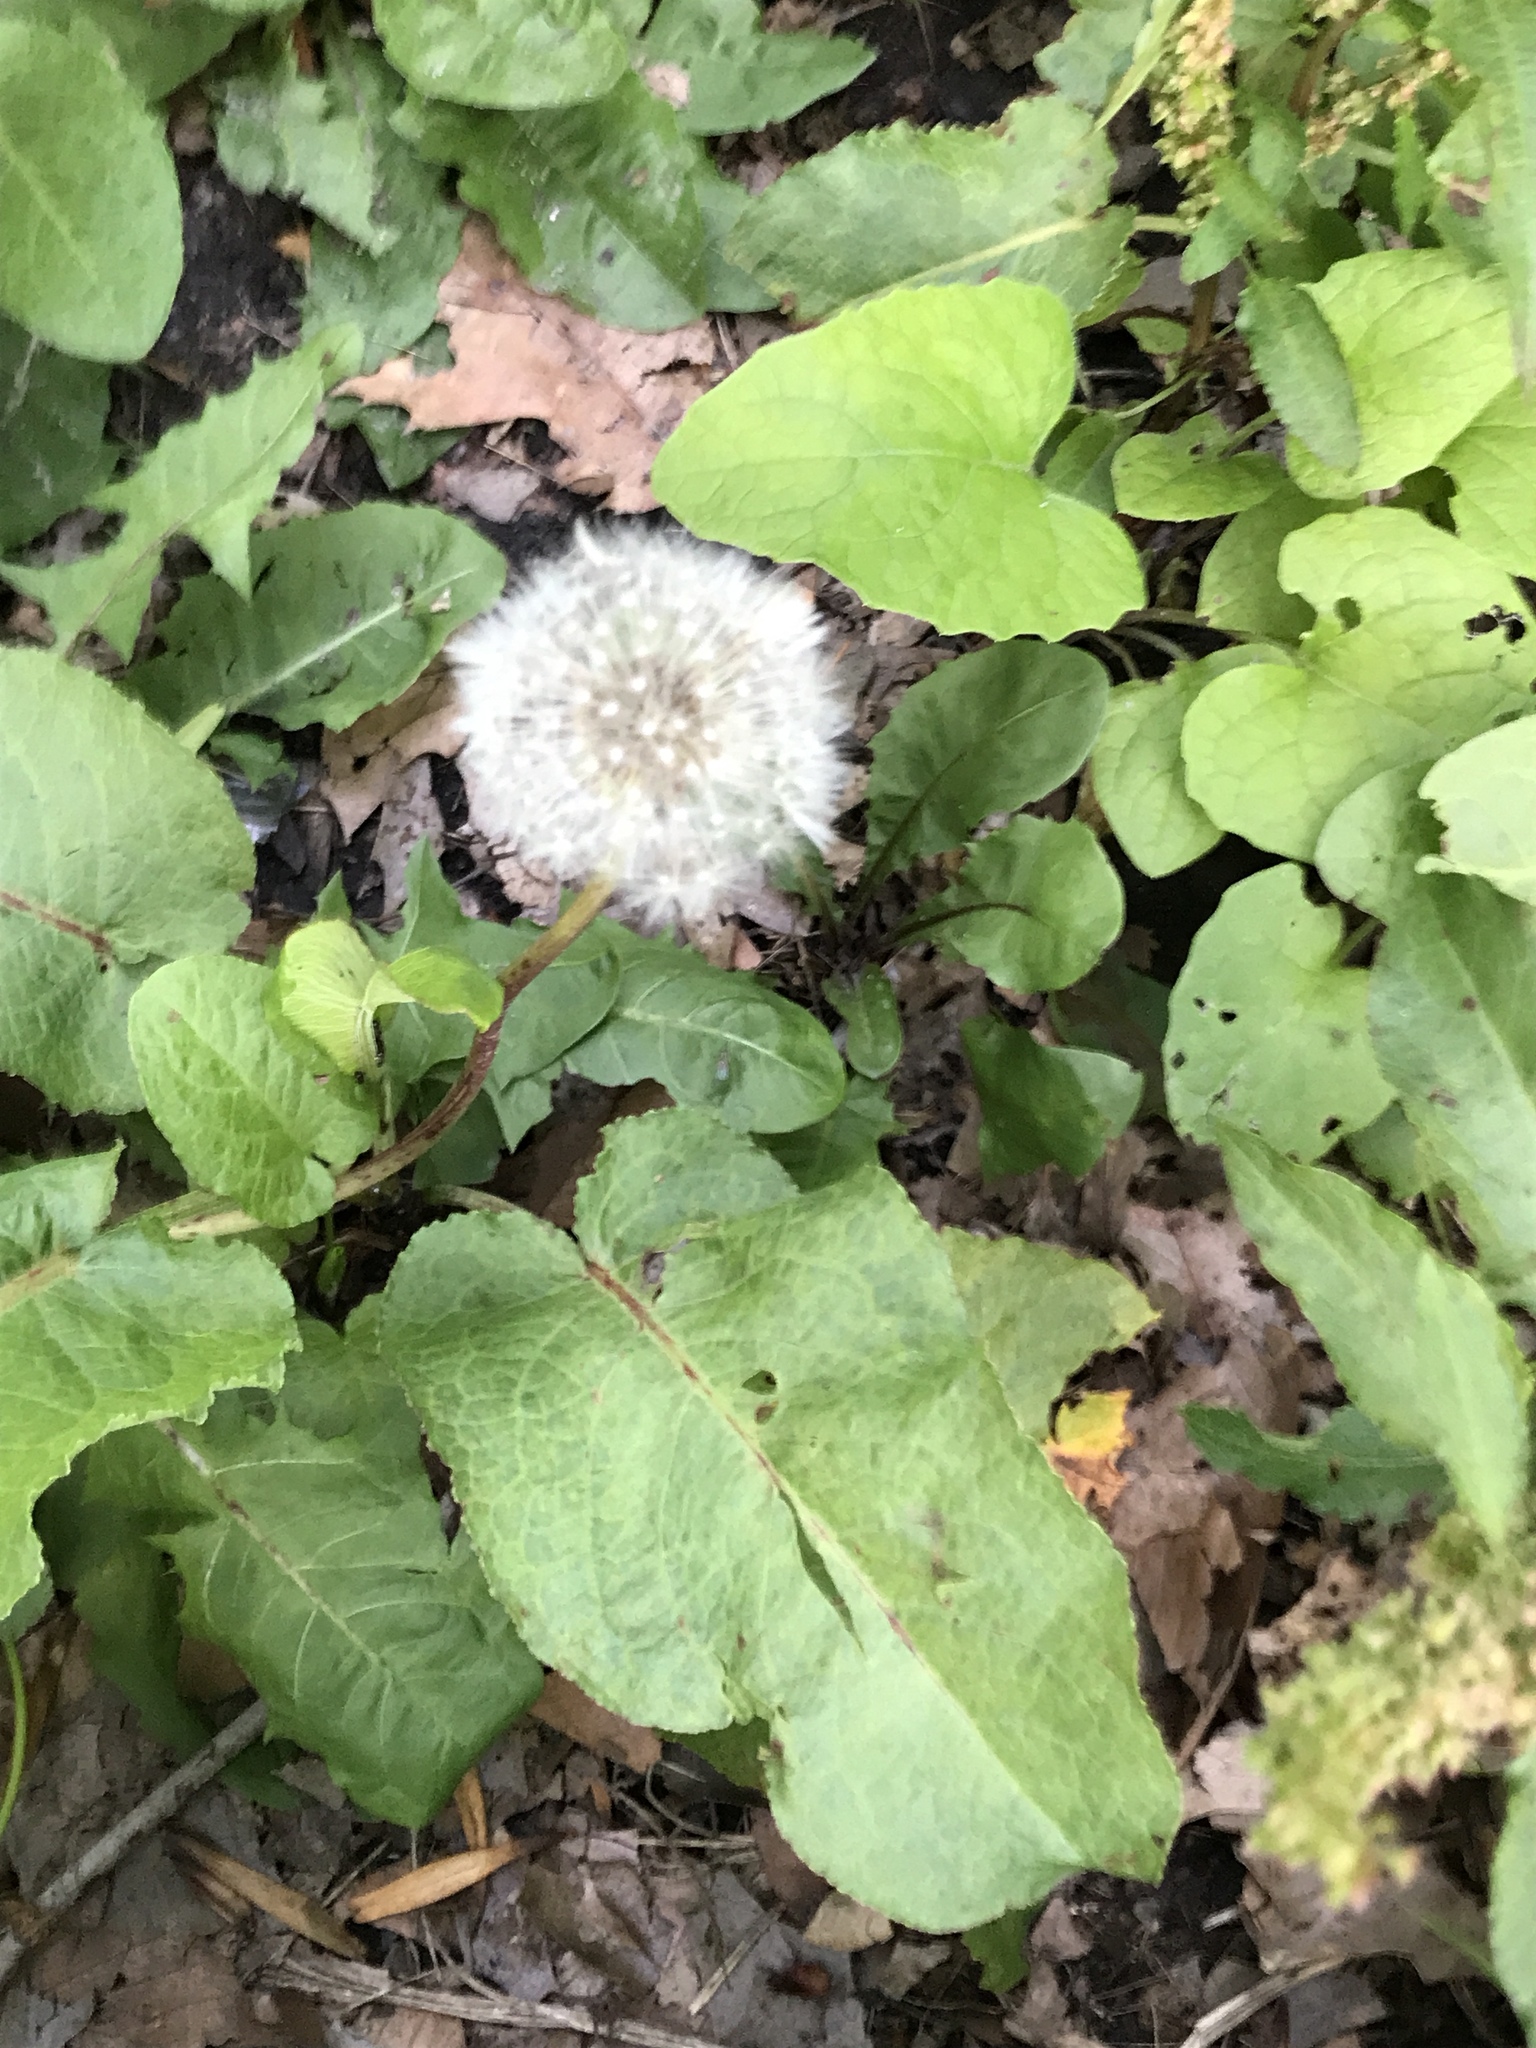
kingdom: Plantae
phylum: Tracheophyta
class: Magnoliopsida
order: Asterales
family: Asteraceae
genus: Taraxacum
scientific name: Taraxacum officinale
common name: Common dandelion
